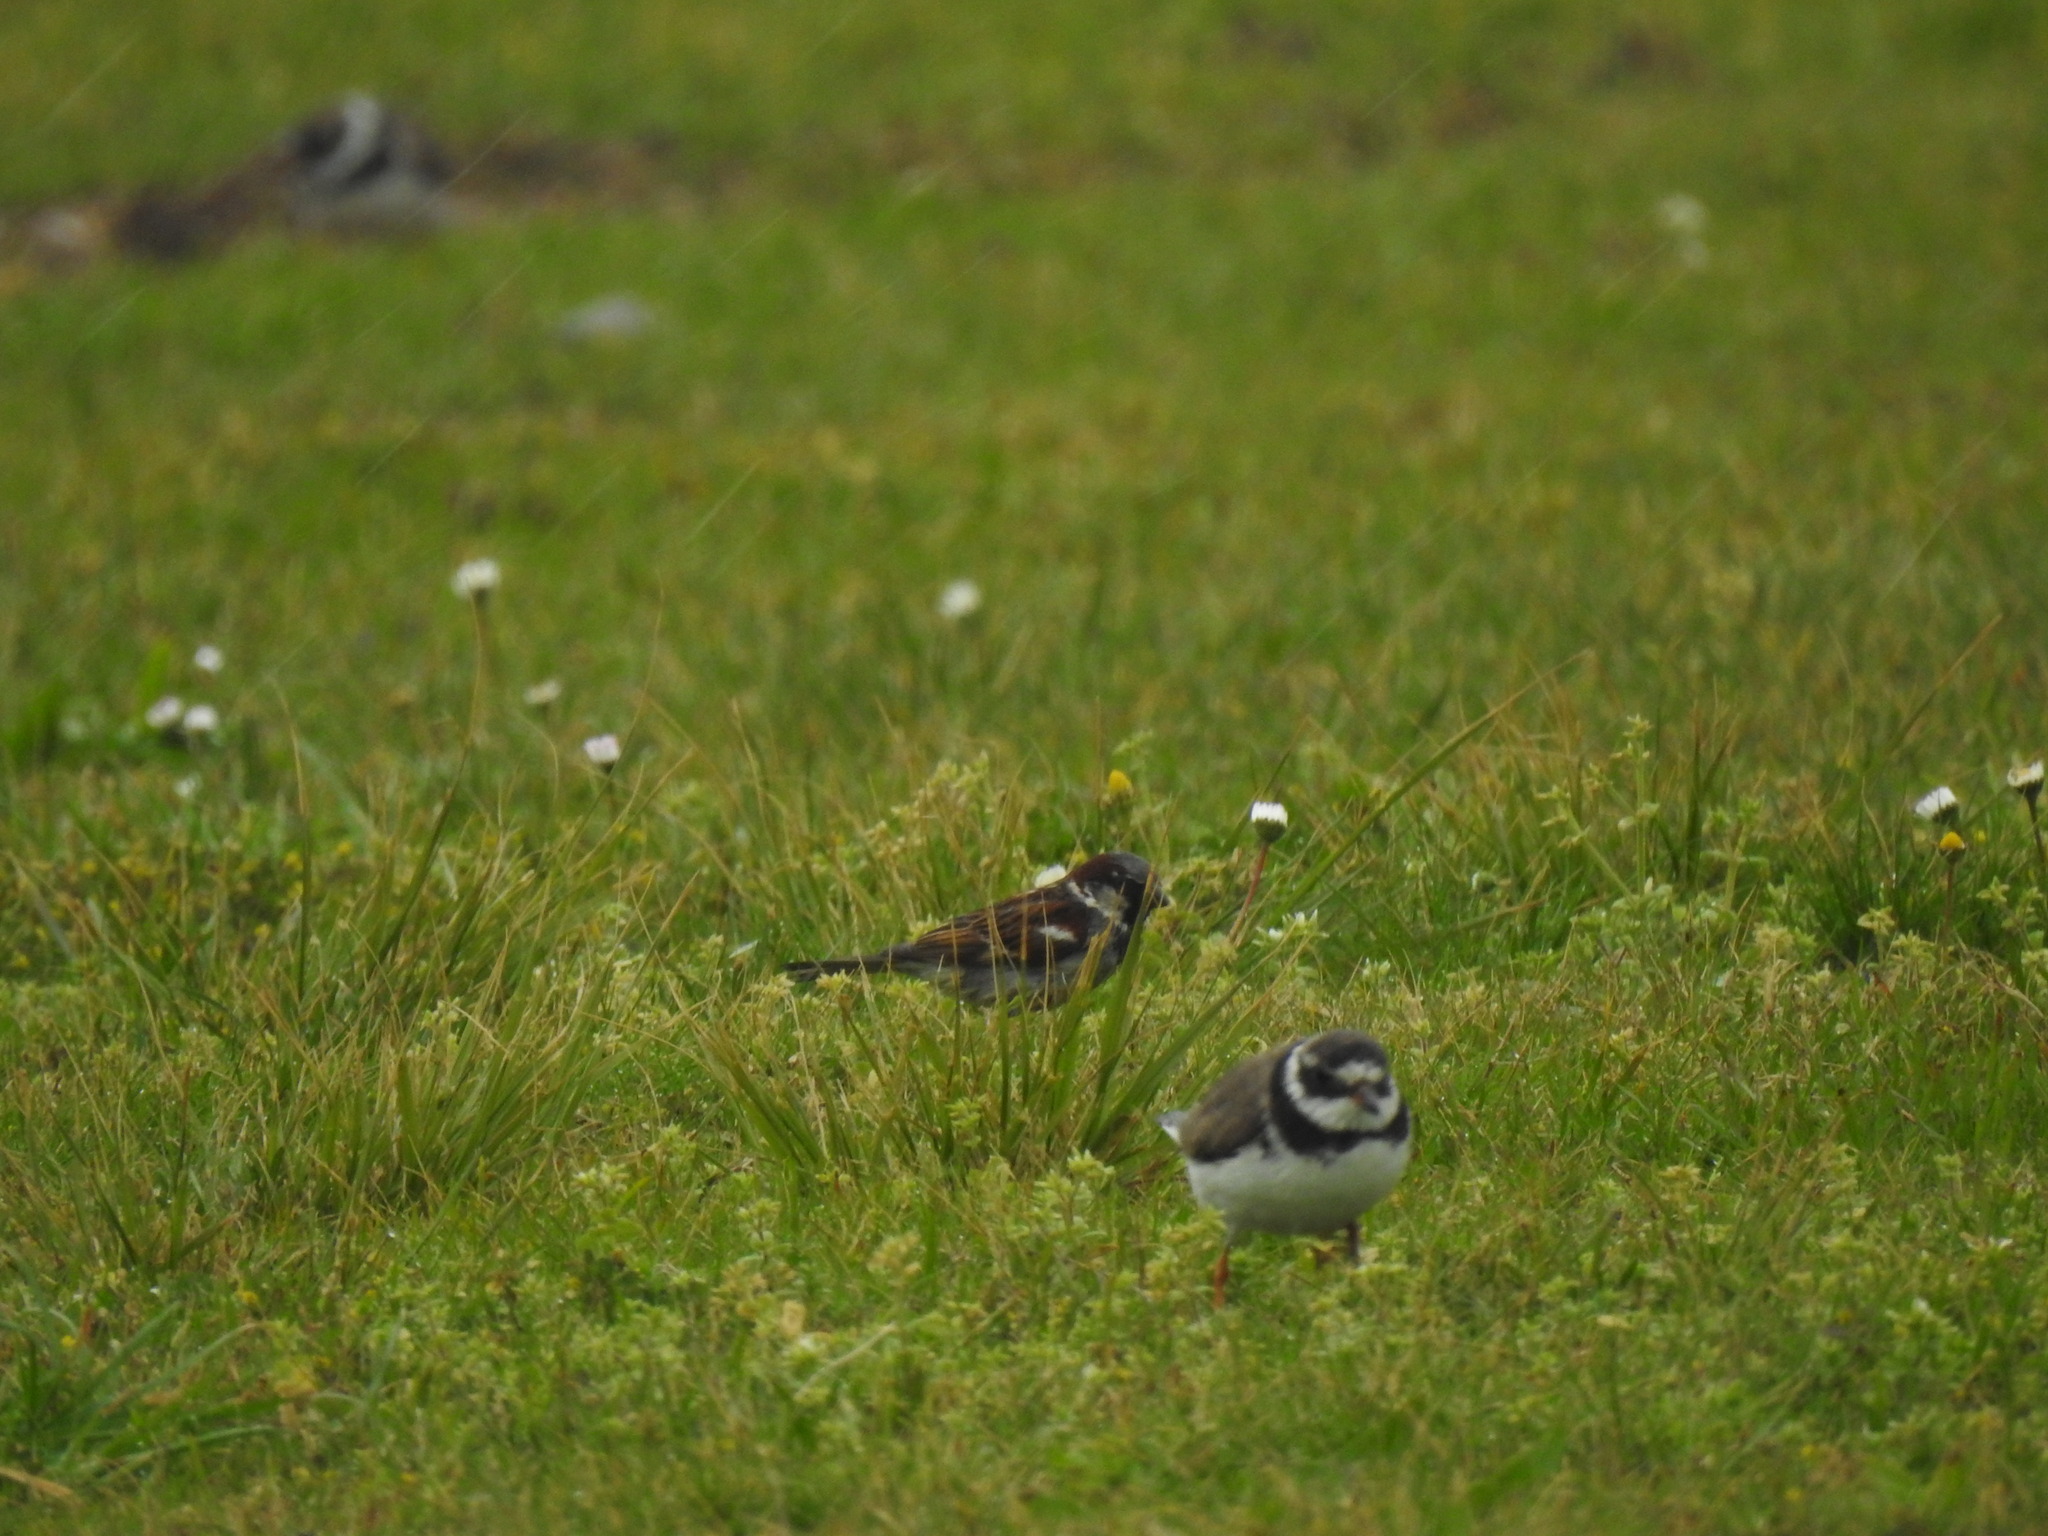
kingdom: Animalia
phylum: Chordata
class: Aves
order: Passeriformes
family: Passeridae
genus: Passer
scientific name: Passer domesticus
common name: House sparrow
